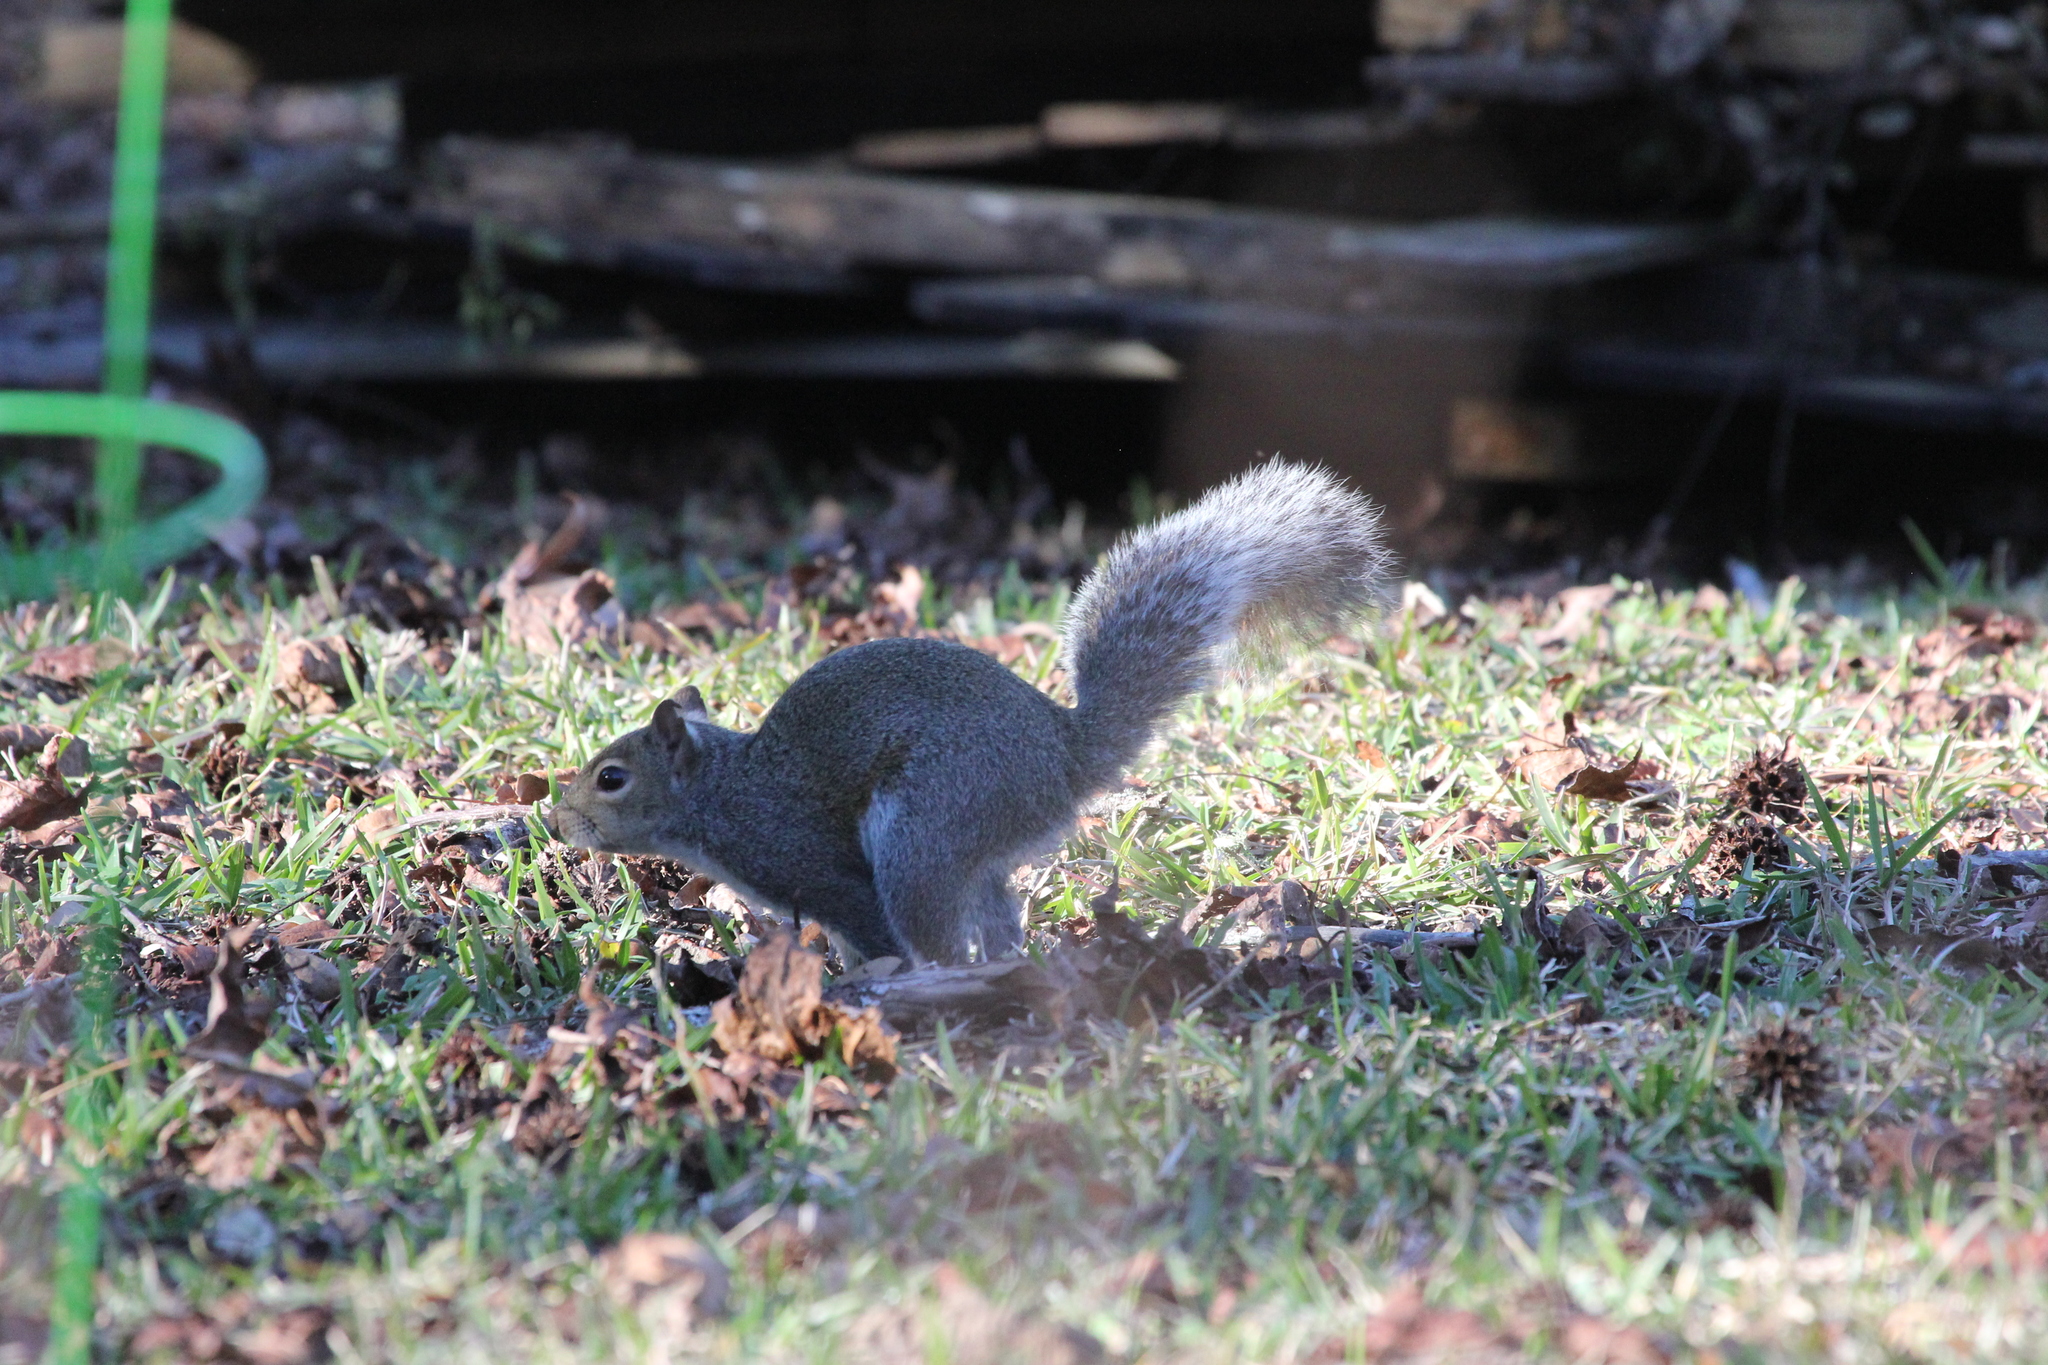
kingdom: Animalia
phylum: Chordata
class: Mammalia
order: Rodentia
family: Sciuridae
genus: Sciurus
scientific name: Sciurus carolinensis
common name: Eastern gray squirrel
